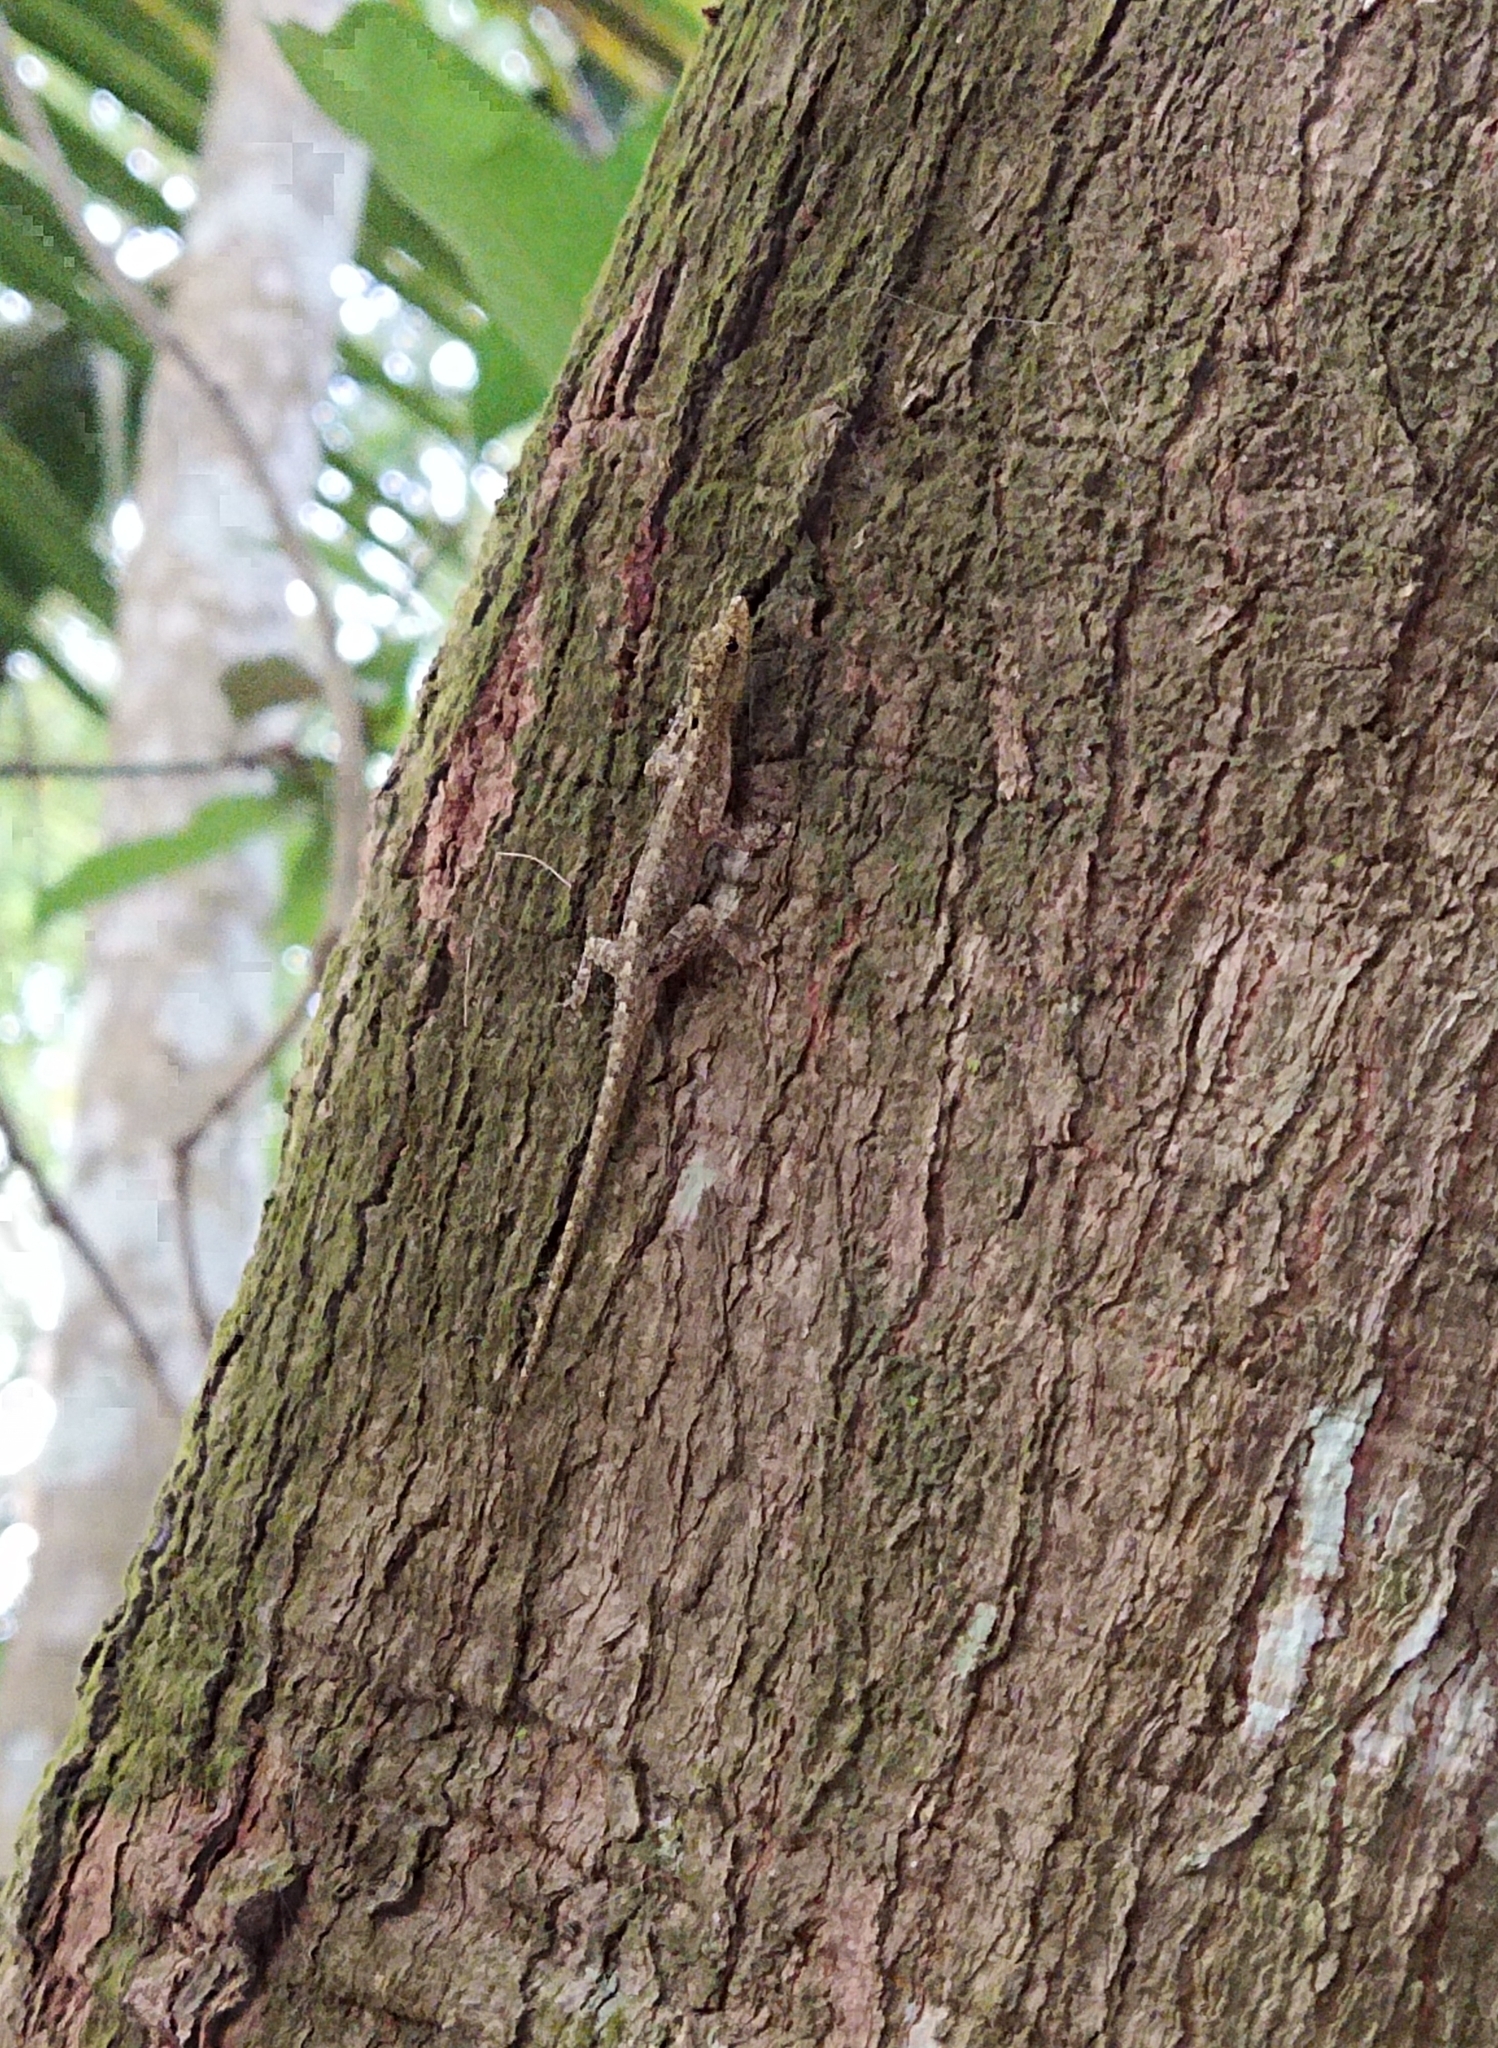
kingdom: Animalia
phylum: Chordata
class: Squamata
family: Gekkonidae
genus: Cnemaspis
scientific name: Cnemaspis littoralis
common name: Coastal day gecko
